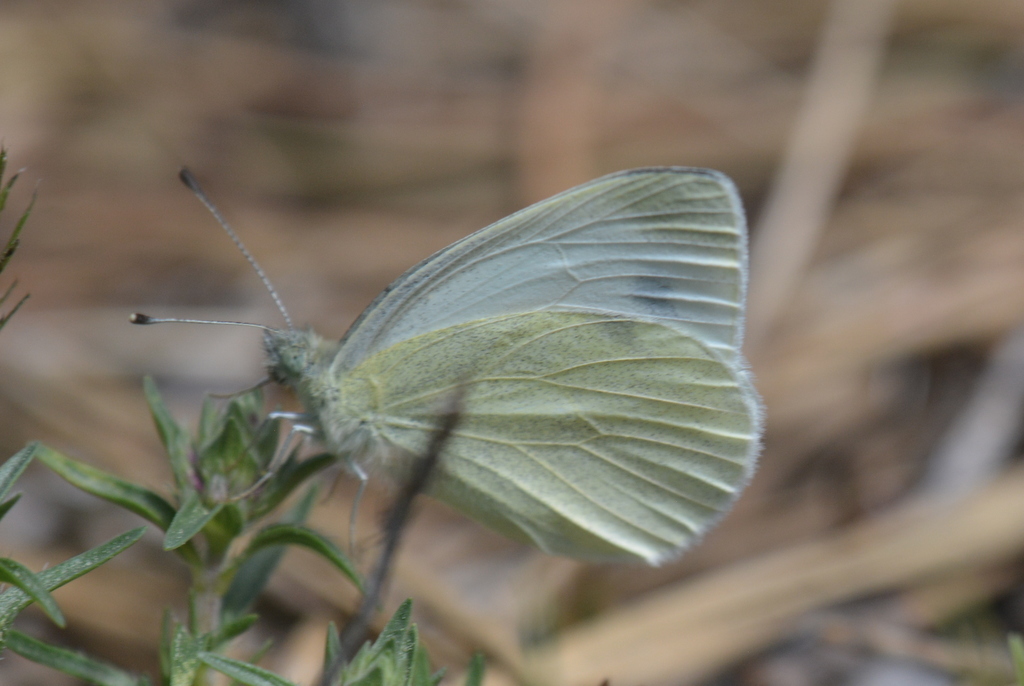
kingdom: Animalia
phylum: Arthropoda
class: Insecta
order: Lepidoptera
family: Pieridae
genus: Pieris
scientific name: Pieris ergane
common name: Mountain small white
